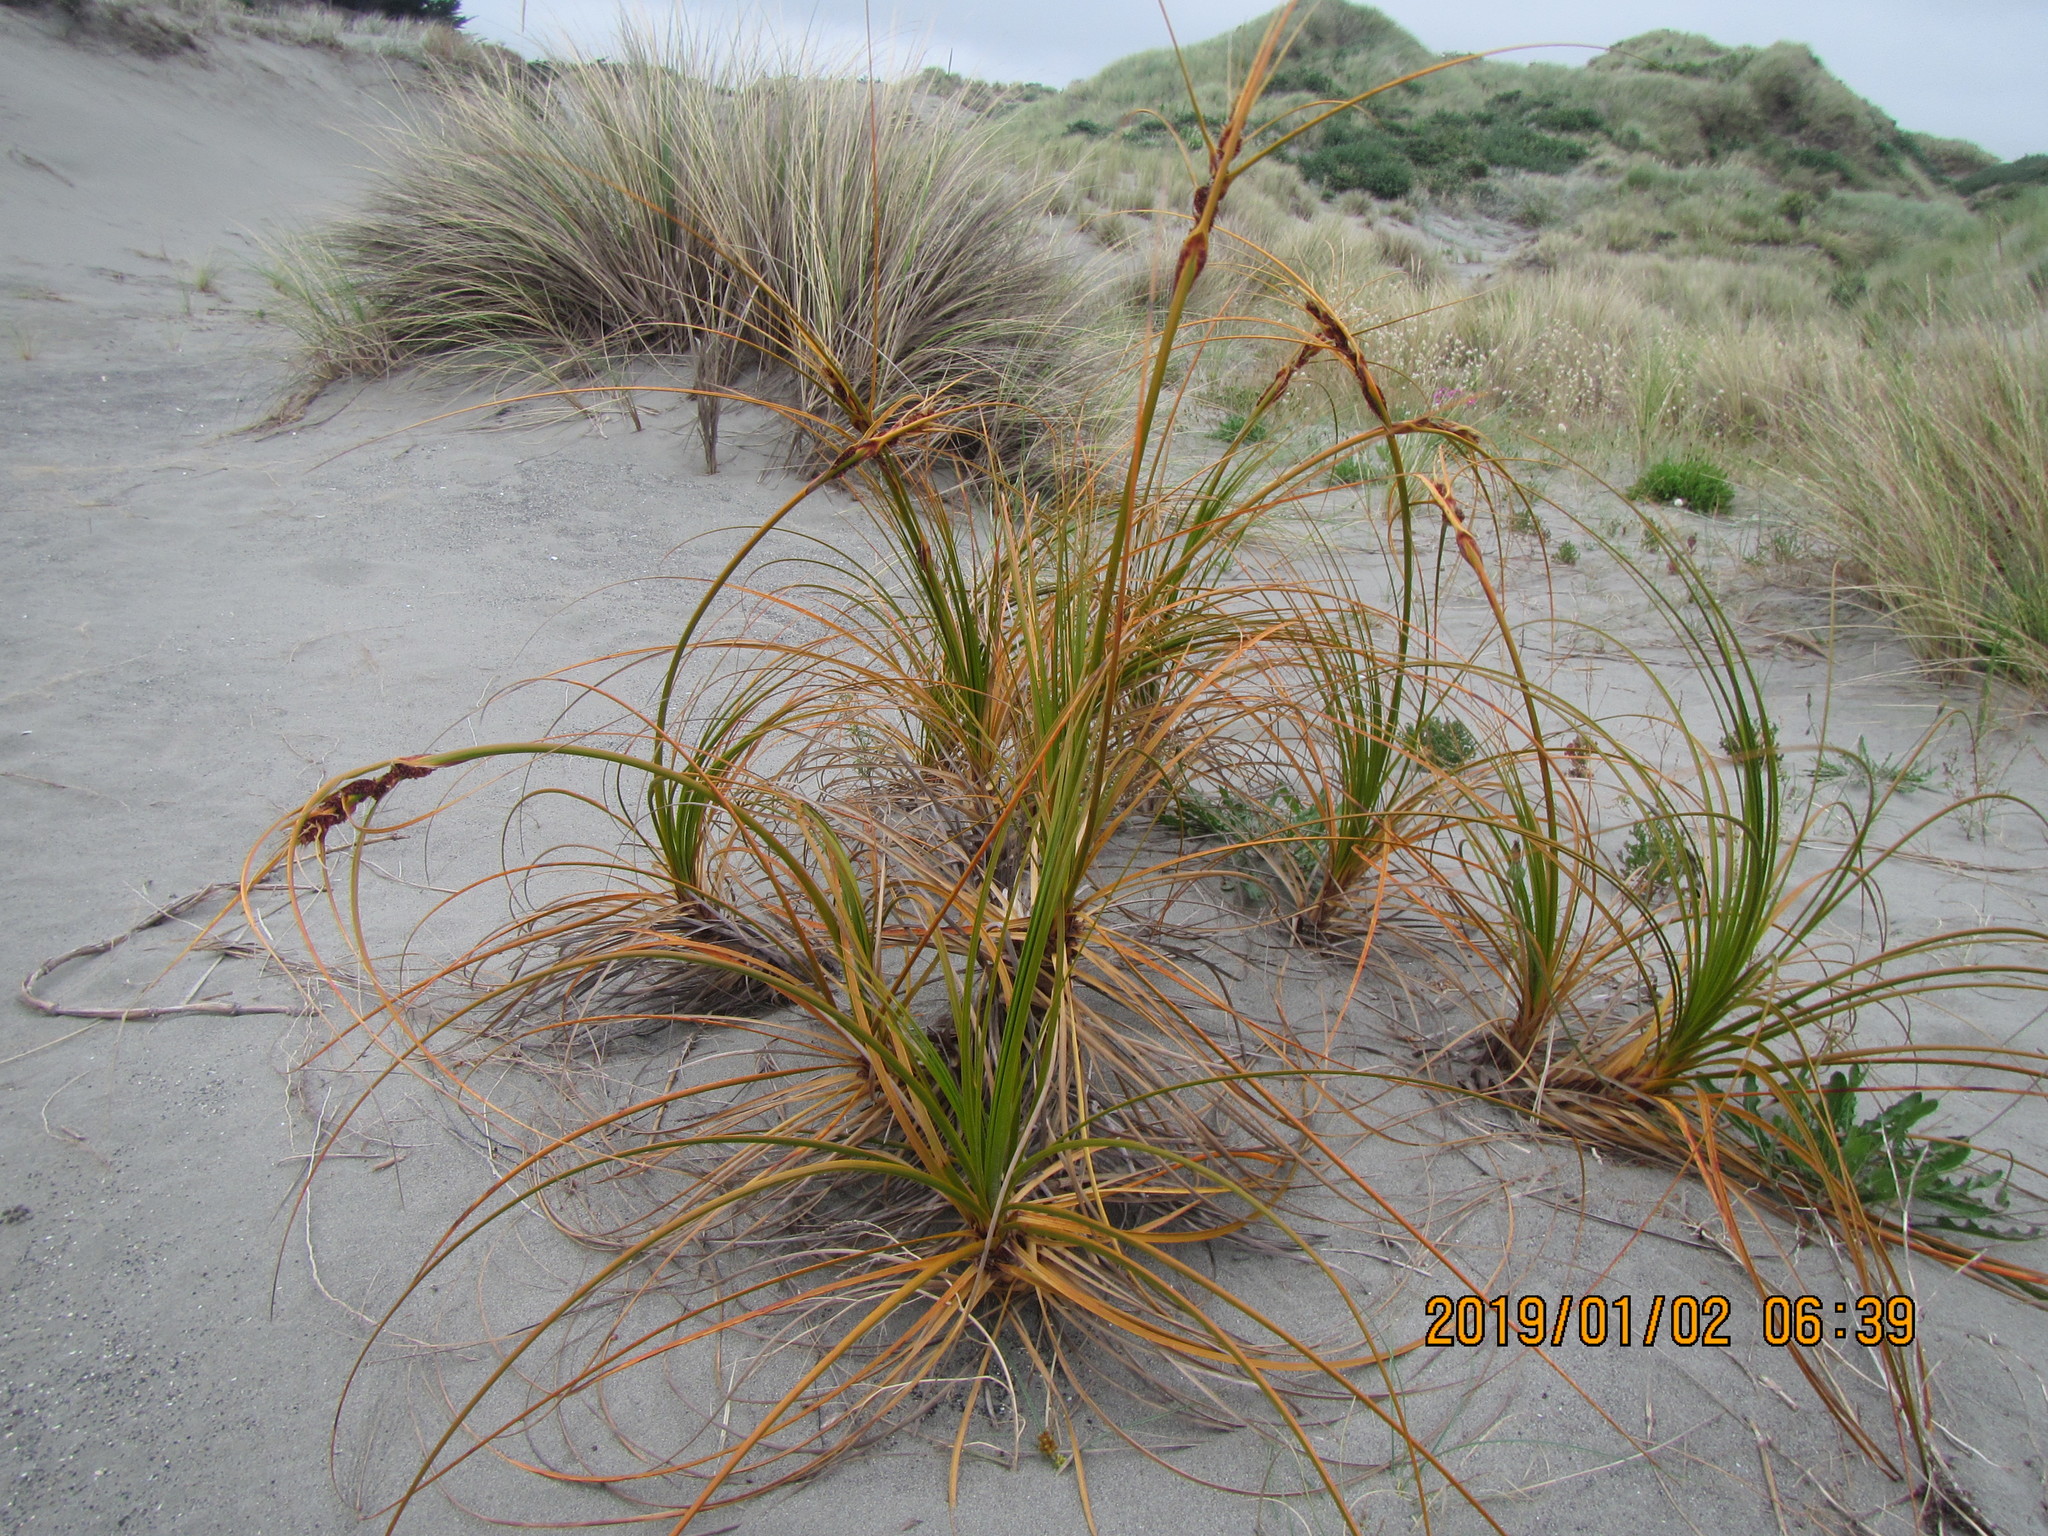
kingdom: Plantae
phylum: Tracheophyta
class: Liliopsida
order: Poales
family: Cyperaceae
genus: Ficinia
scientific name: Ficinia spiralis
